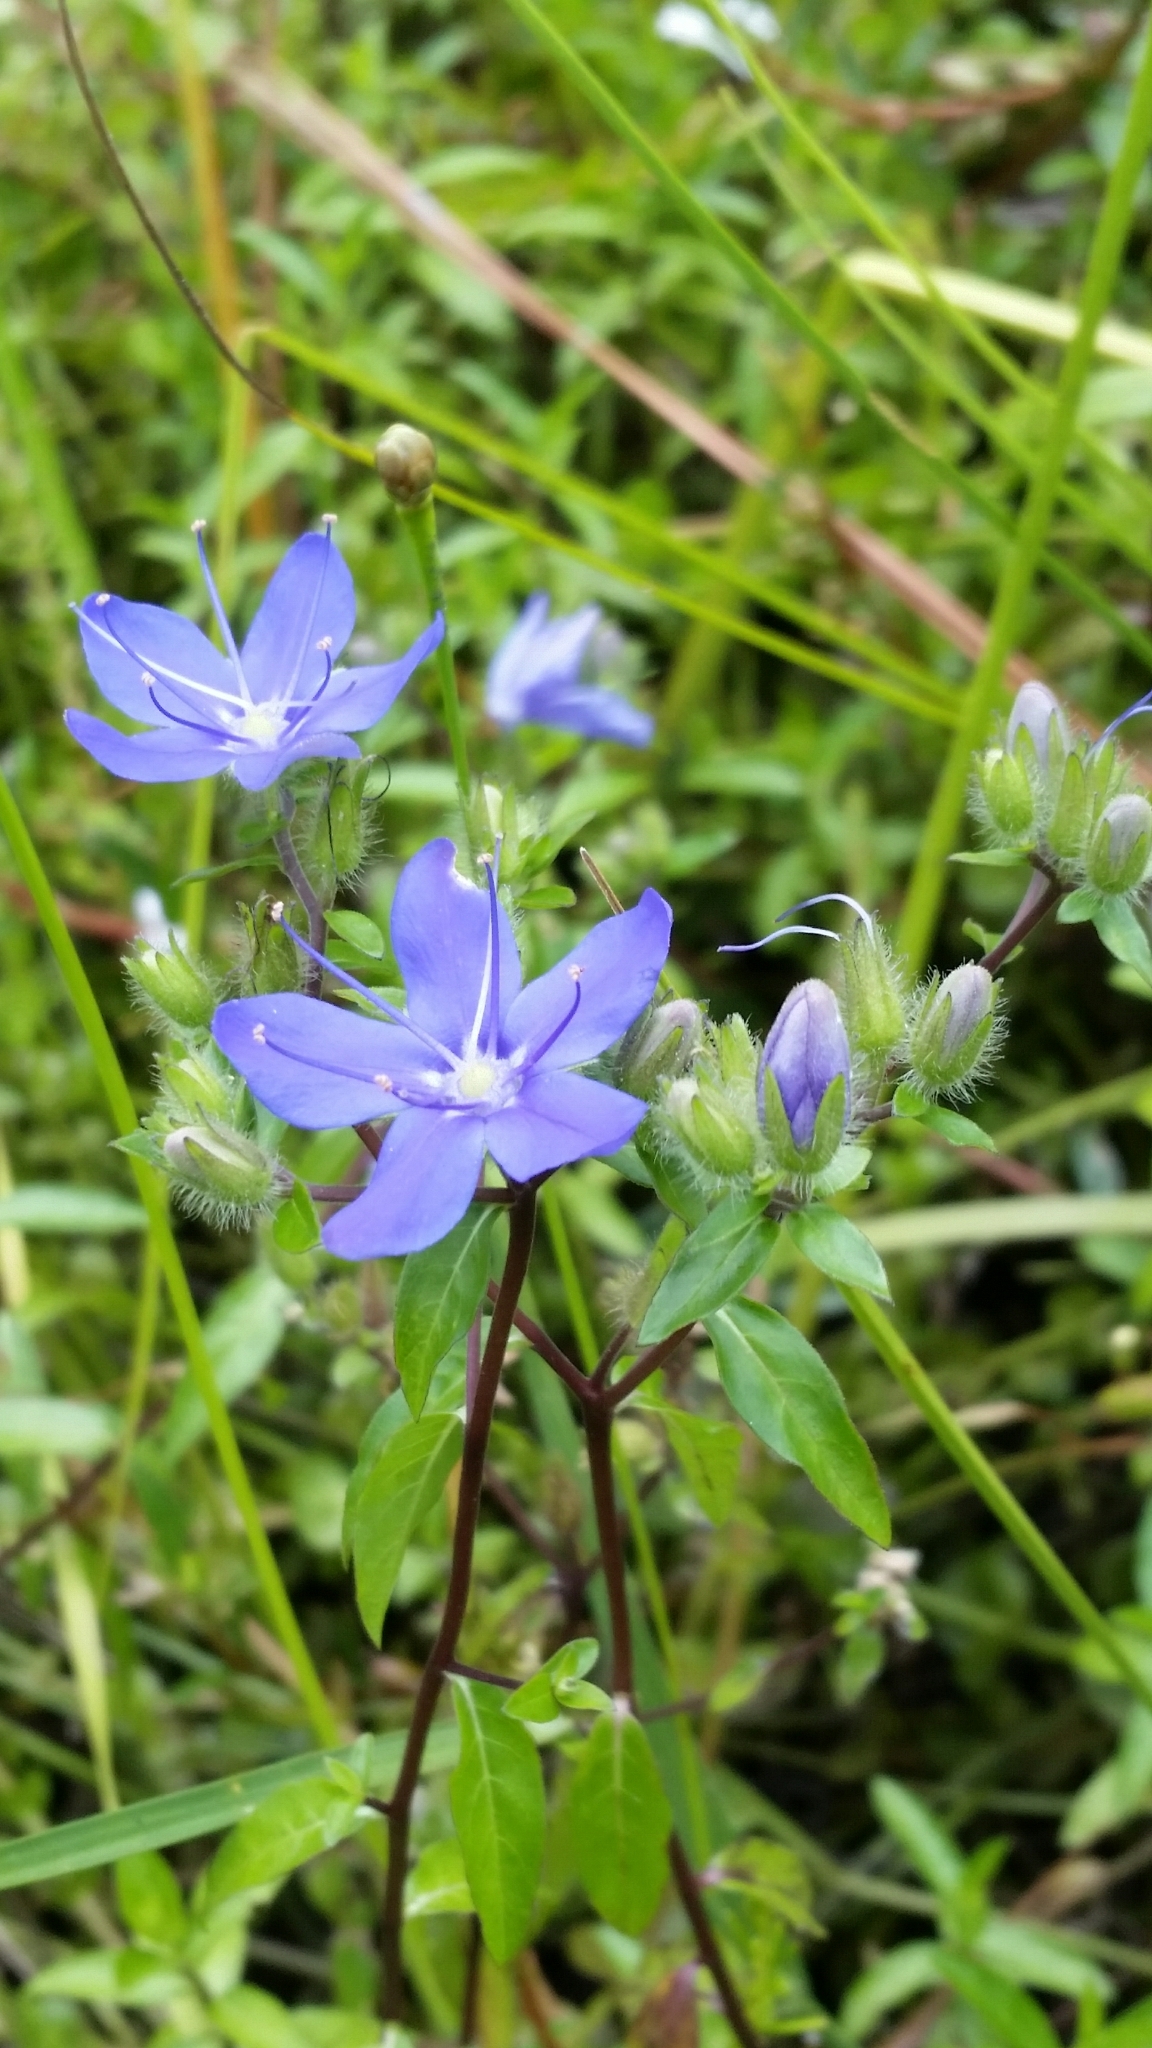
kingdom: Plantae
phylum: Tracheophyta
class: Magnoliopsida
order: Solanales
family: Hydroleaceae
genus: Hydrolea
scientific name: Hydrolea corymbosa
